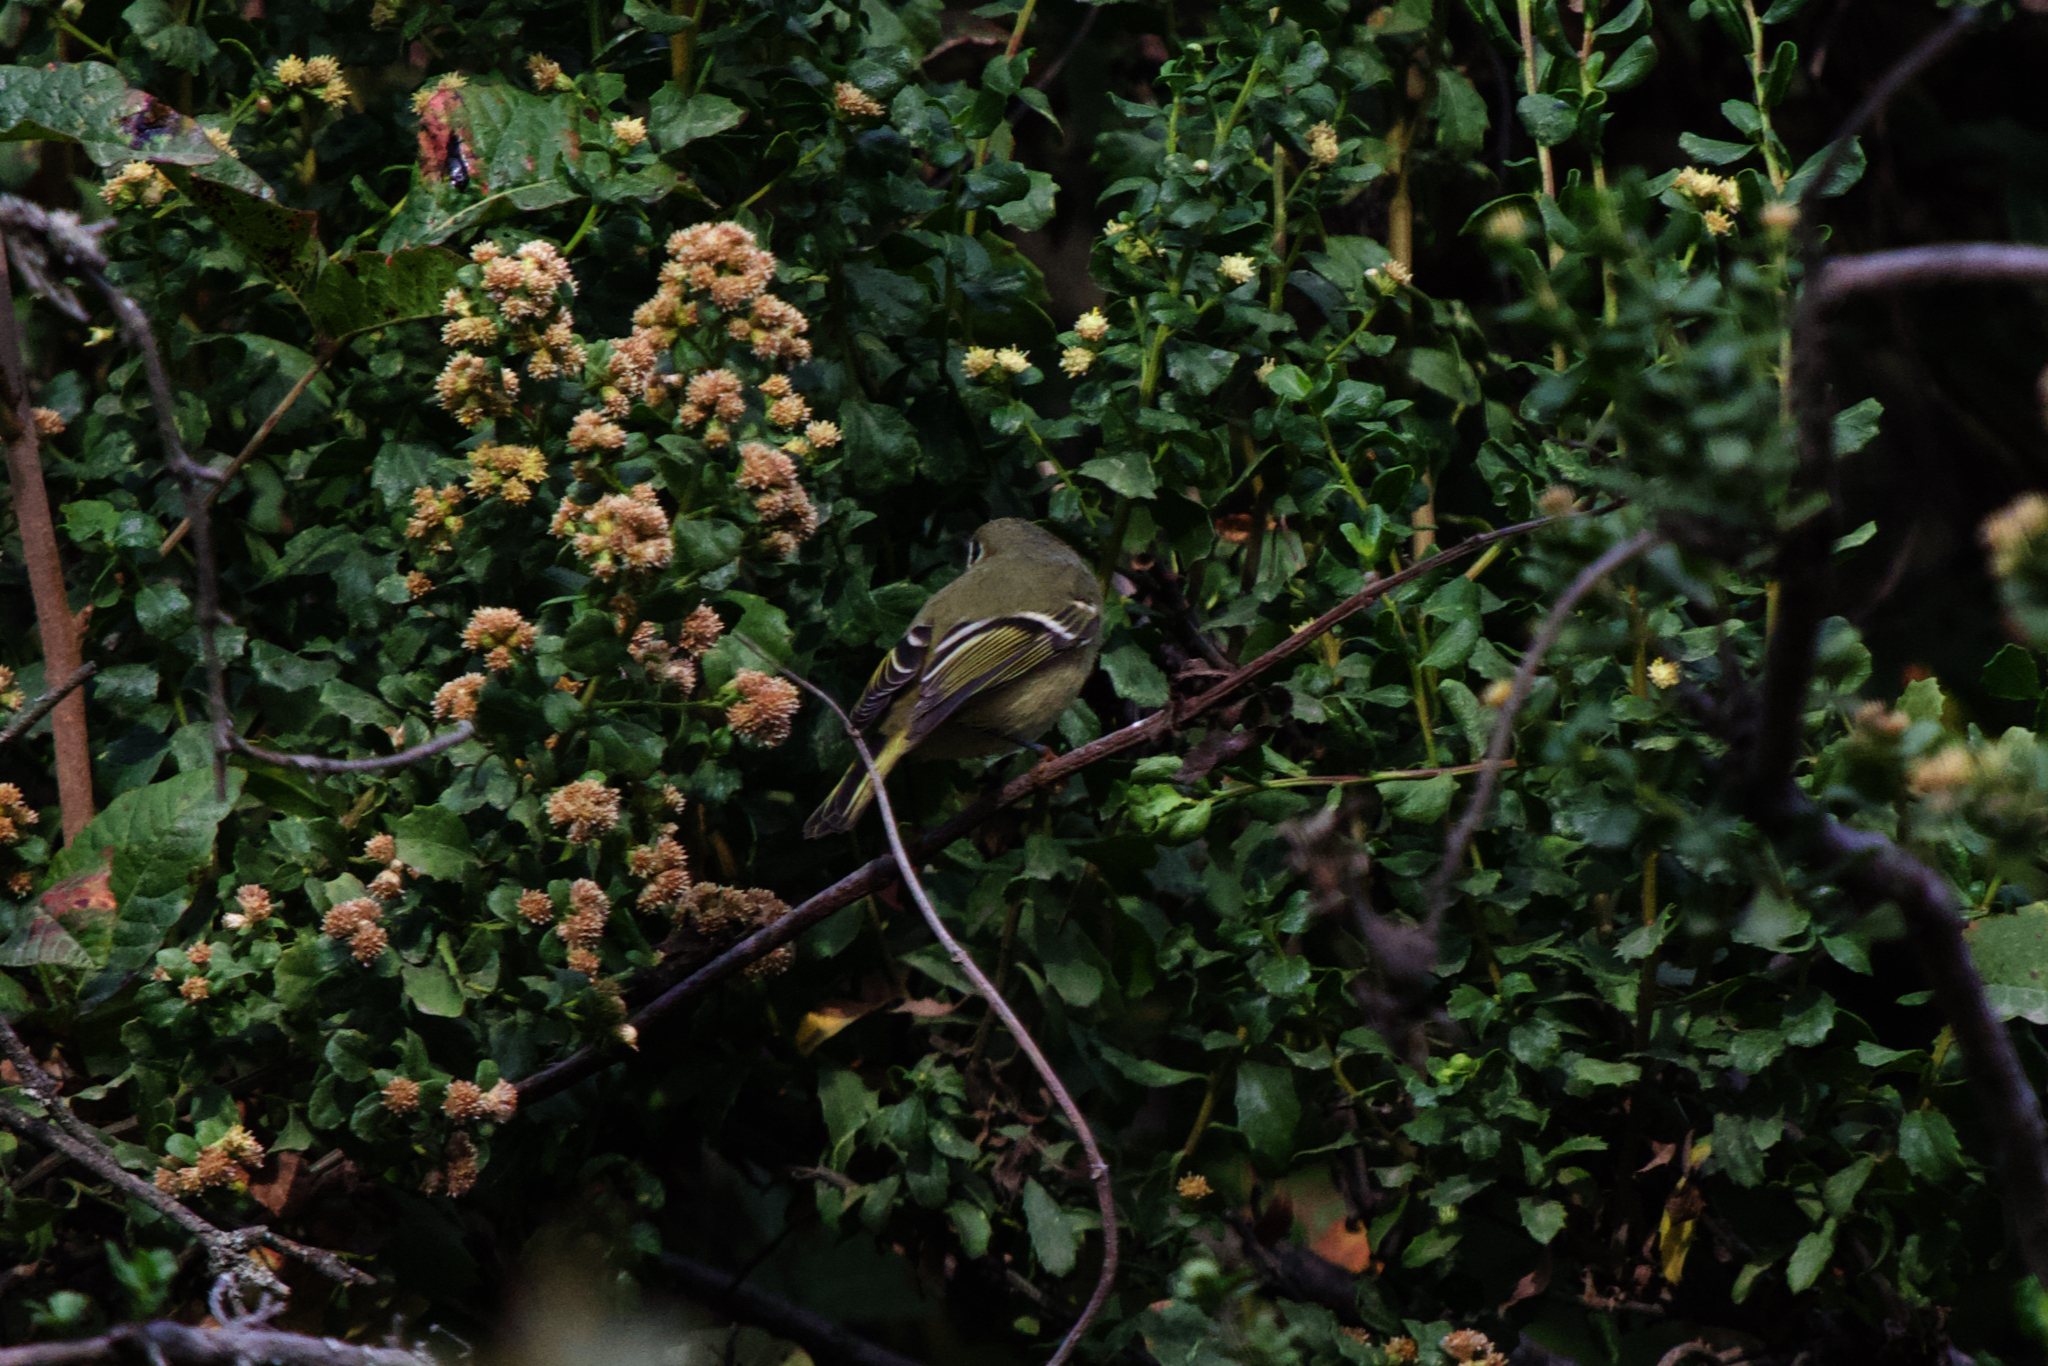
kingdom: Animalia
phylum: Chordata
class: Aves
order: Passeriformes
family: Regulidae
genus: Regulus
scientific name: Regulus calendula
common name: Ruby-crowned kinglet
